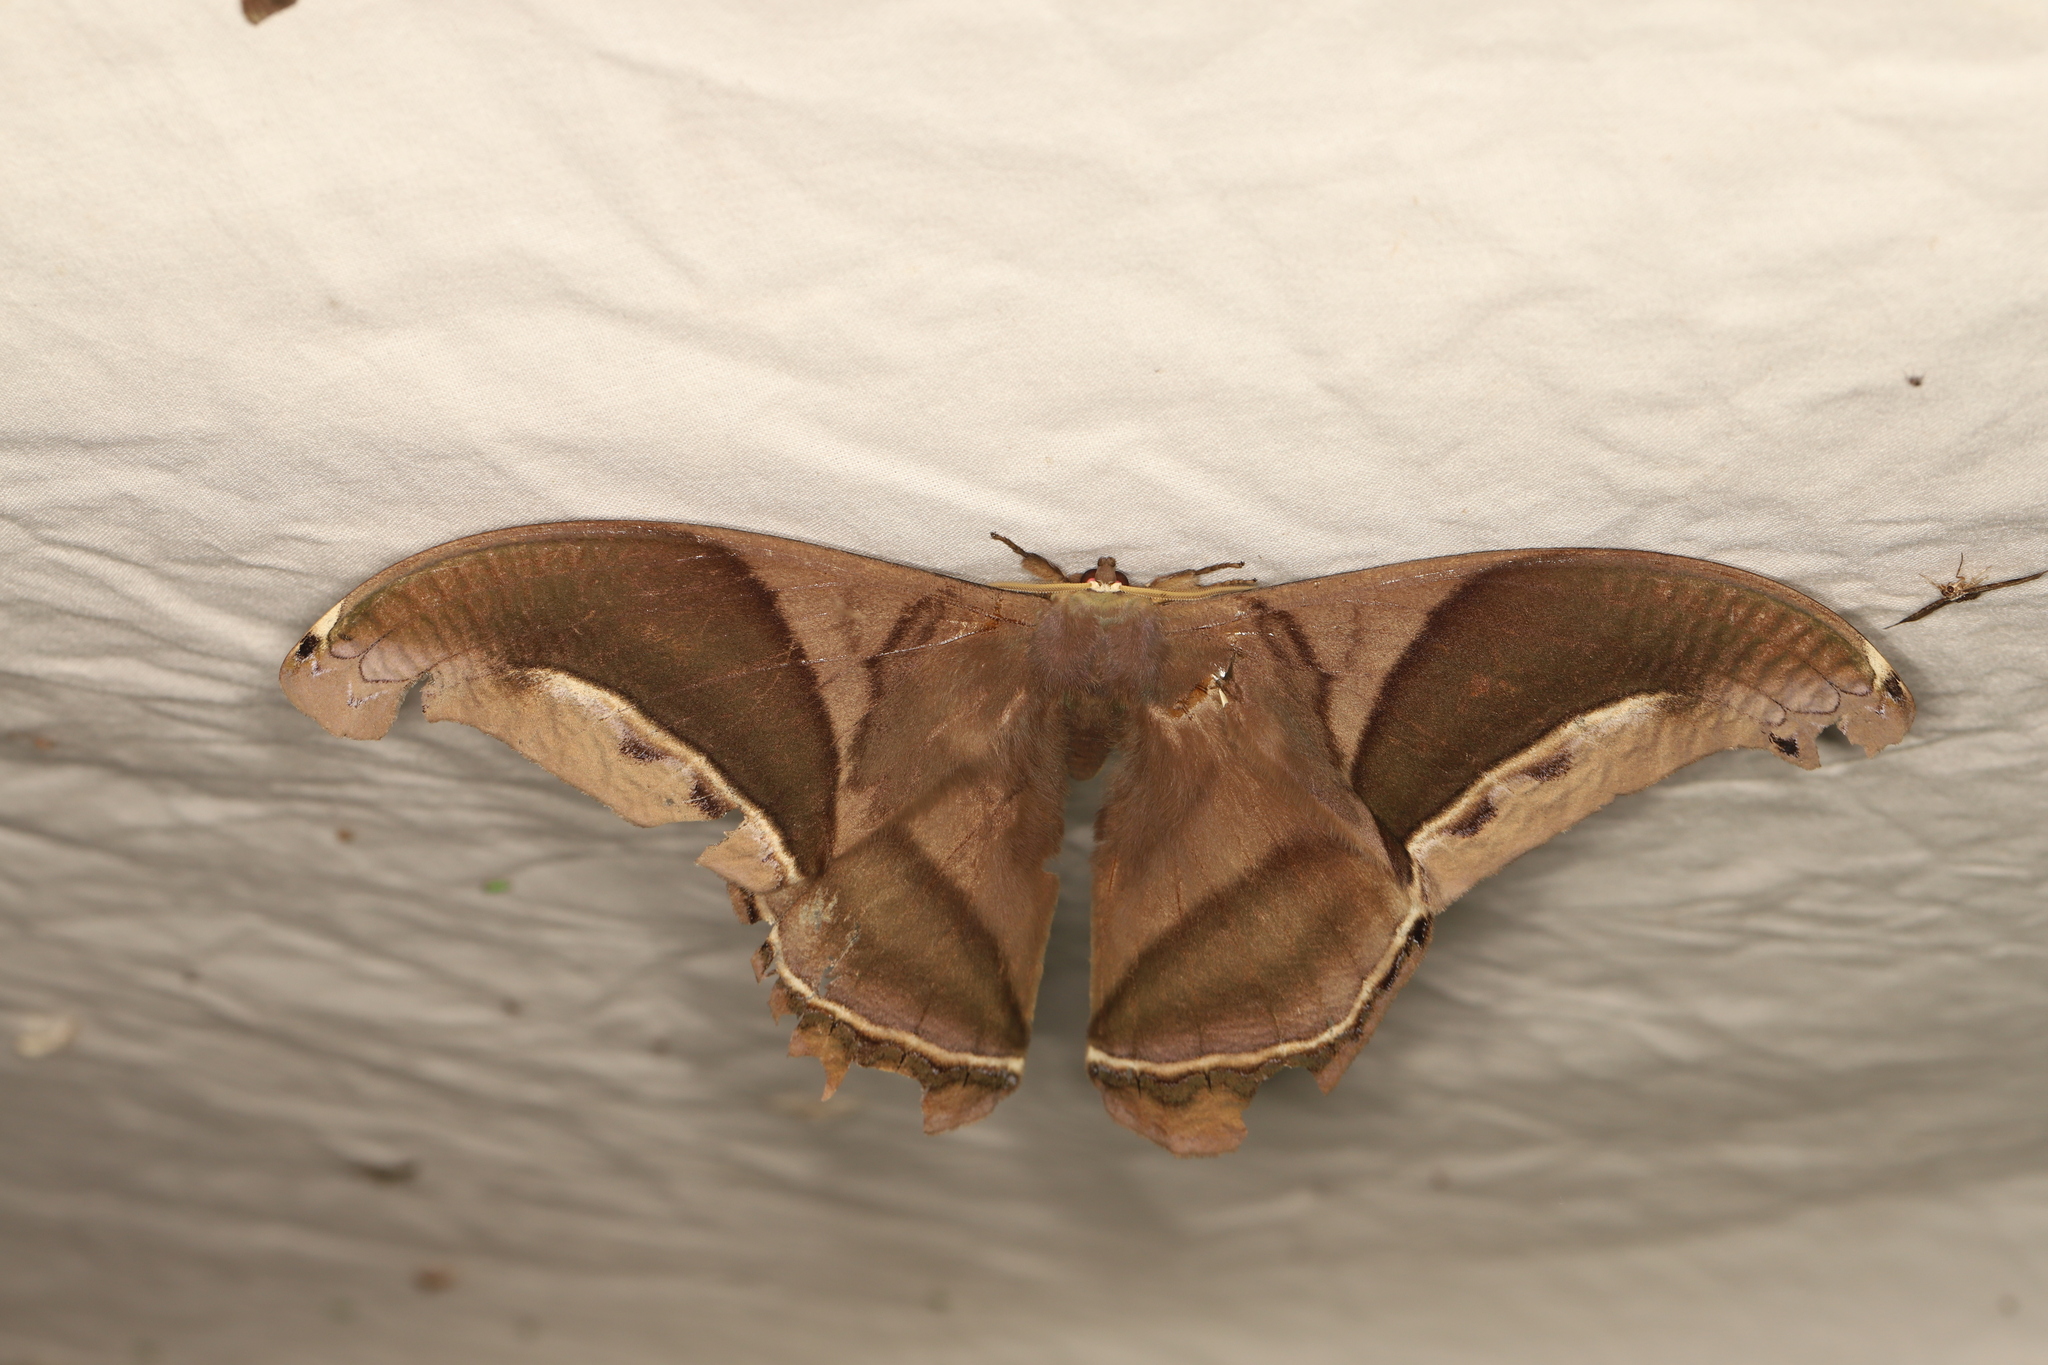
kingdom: Animalia
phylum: Arthropoda
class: Insecta
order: Lepidoptera
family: Saturniidae
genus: Rhescyntis
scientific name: Rhescyntis hippodamia
